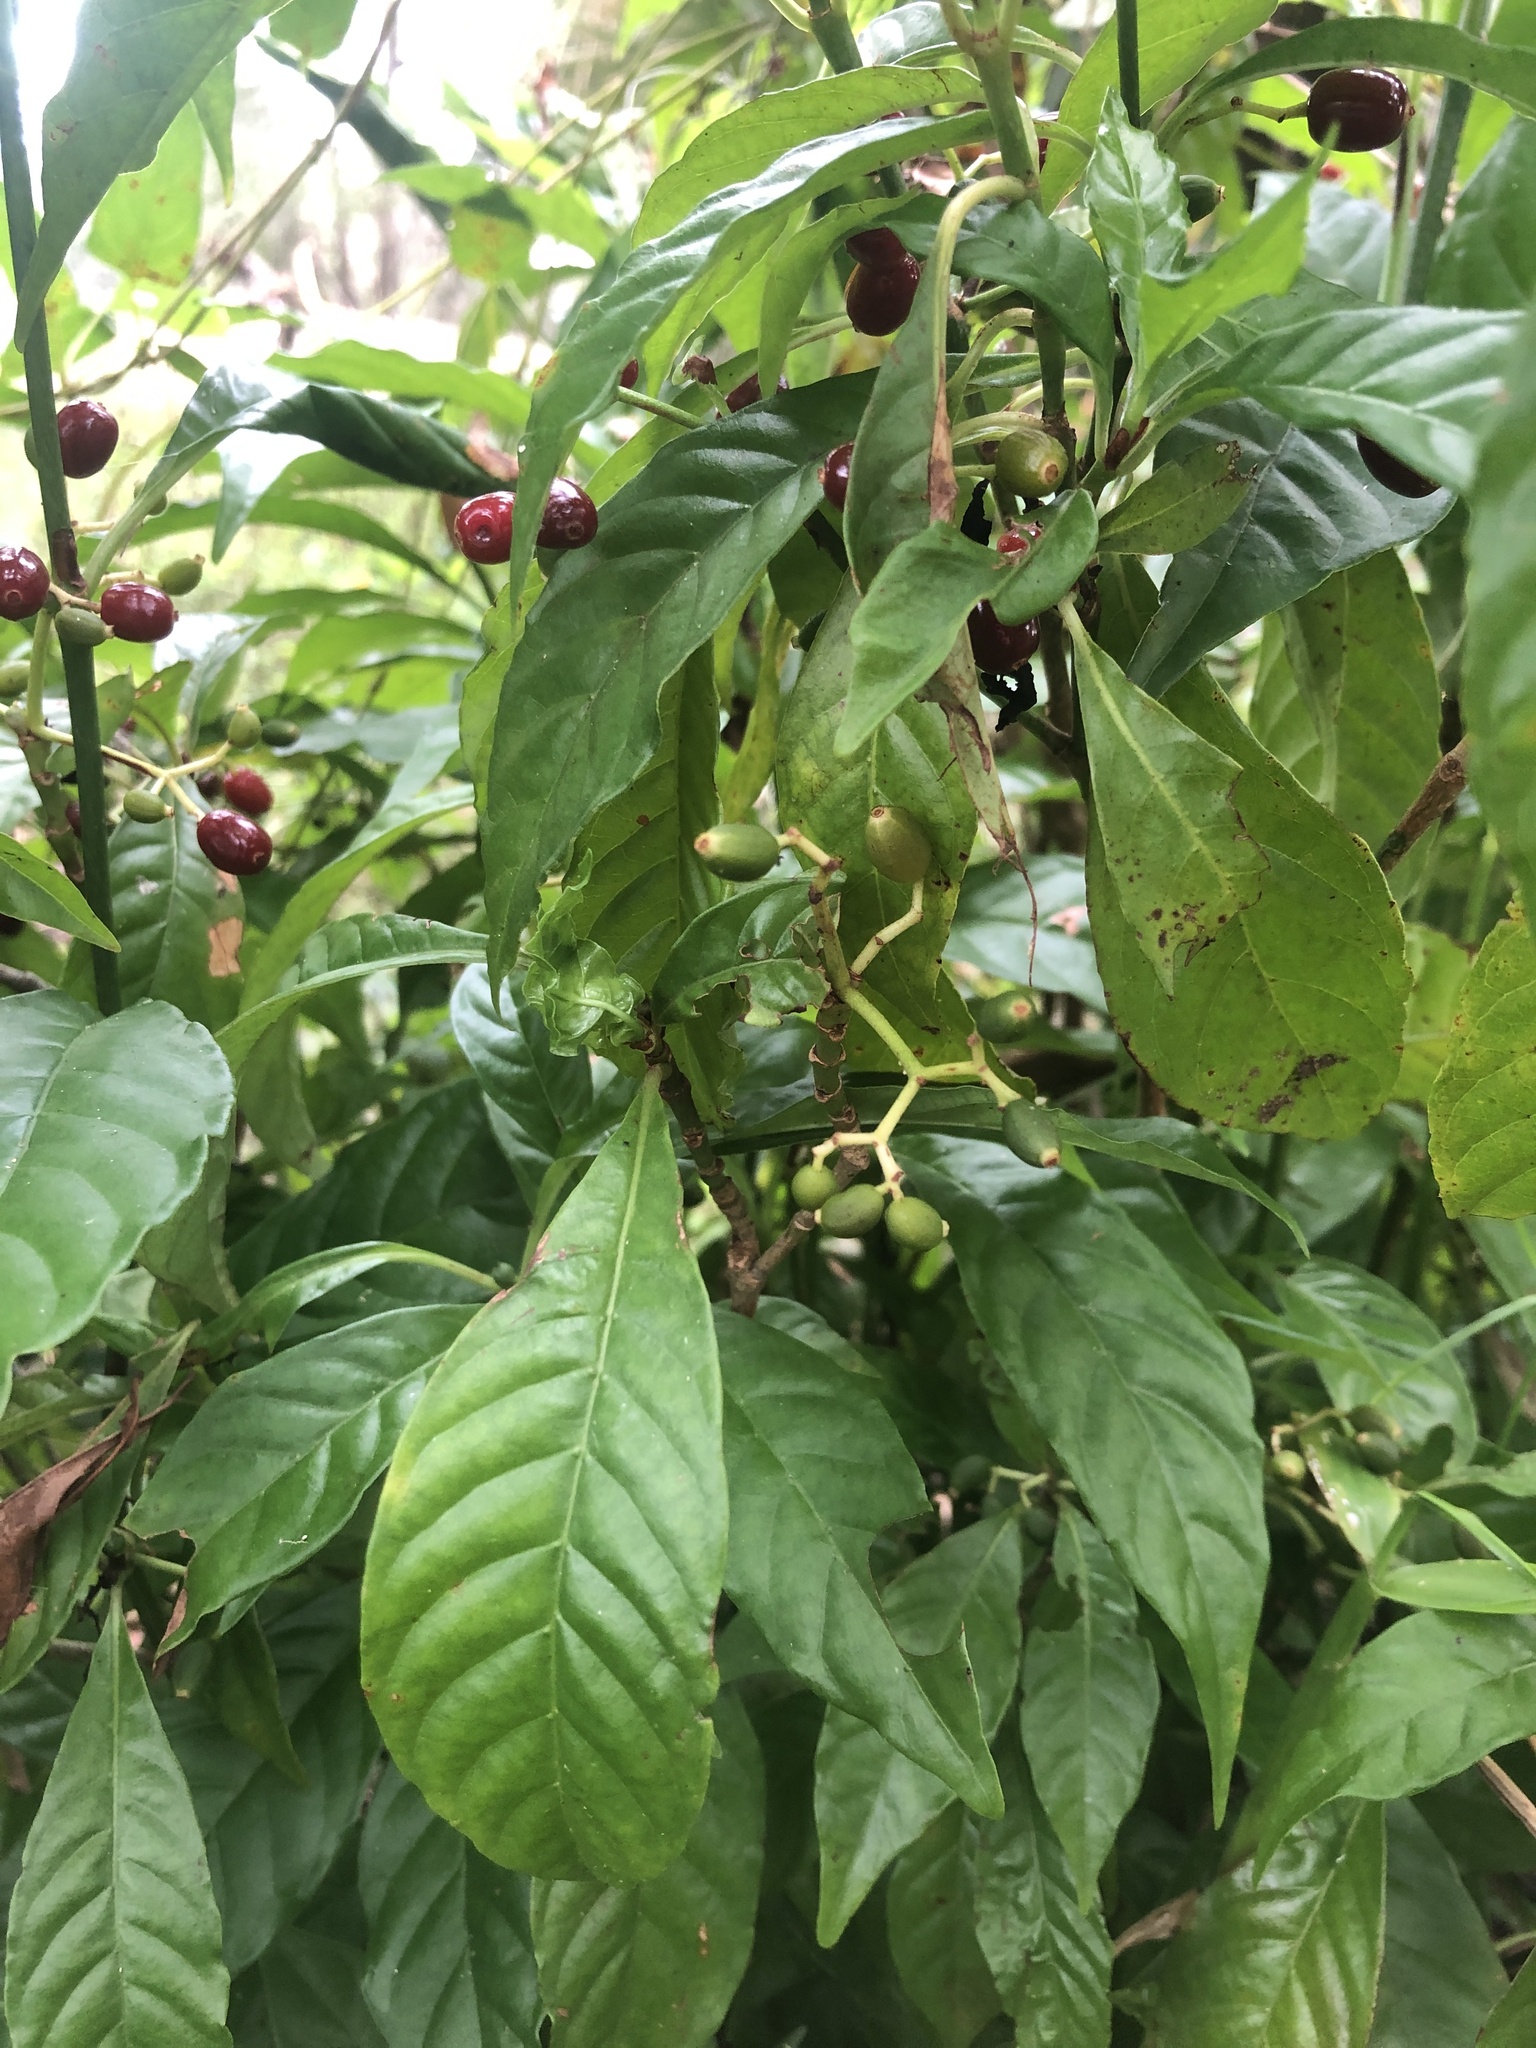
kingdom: Plantae
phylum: Tracheophyta
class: Magnoliopsida
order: Gentianales
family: Rubiaceae
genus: Psychotria
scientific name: Psychotria nervosa
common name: Bastard cankerberry
